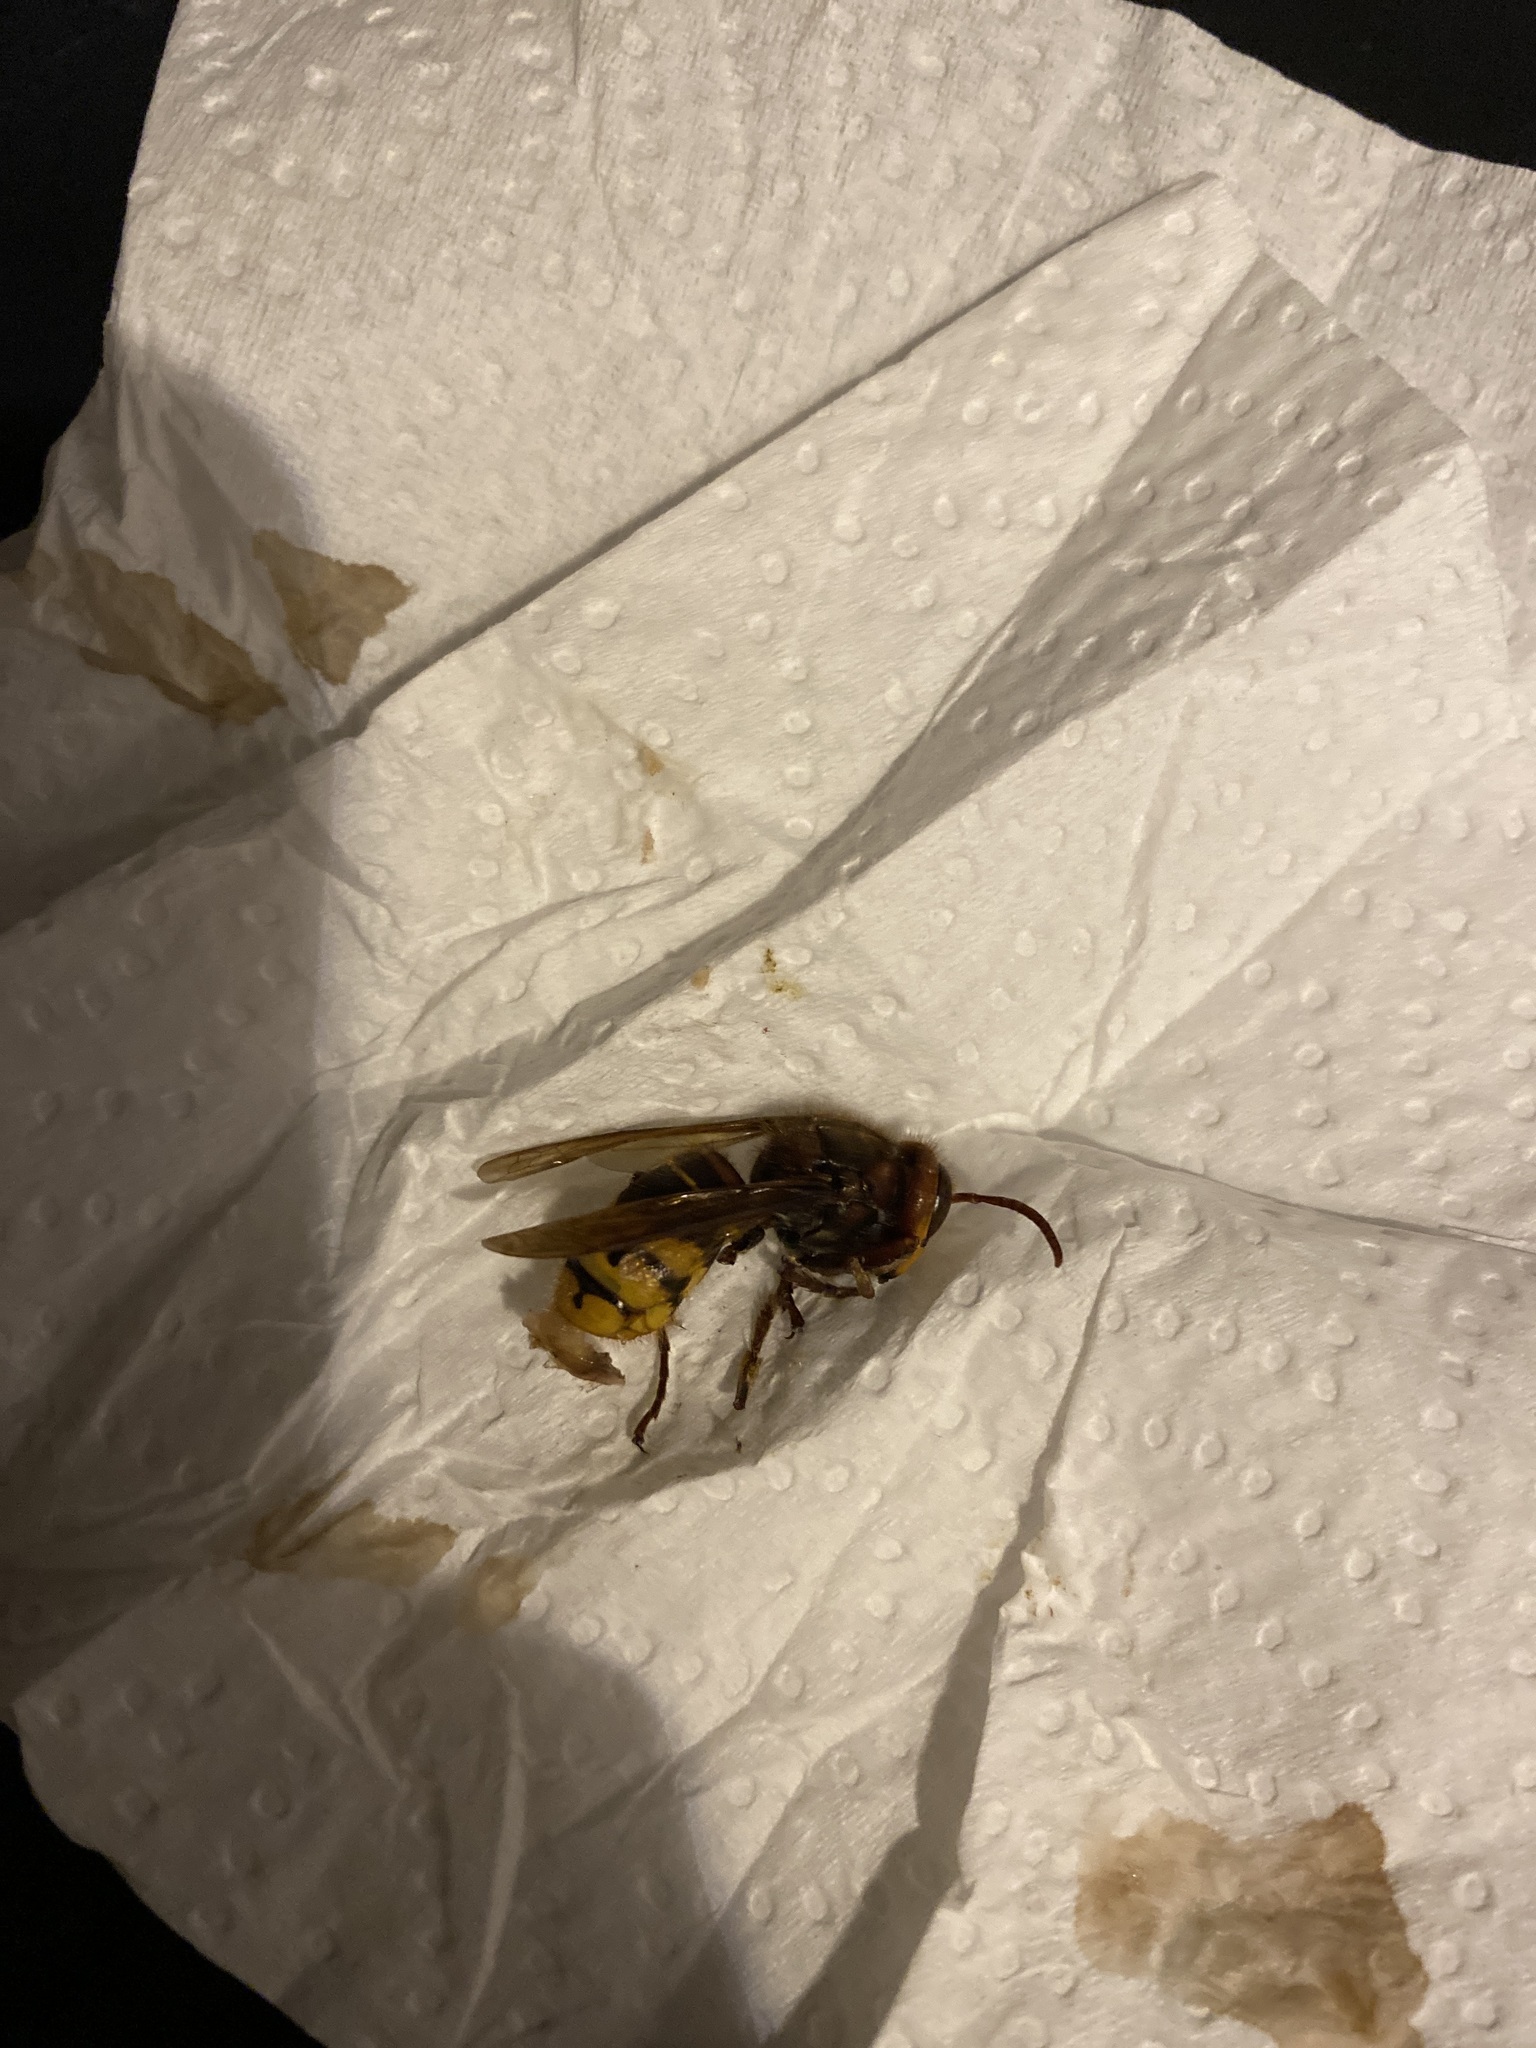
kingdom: Animalia
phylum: Arthropoda
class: Insecta
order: Hymenoptera
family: Vespidae
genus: Vespa
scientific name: Vespa crabro
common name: Hornet
